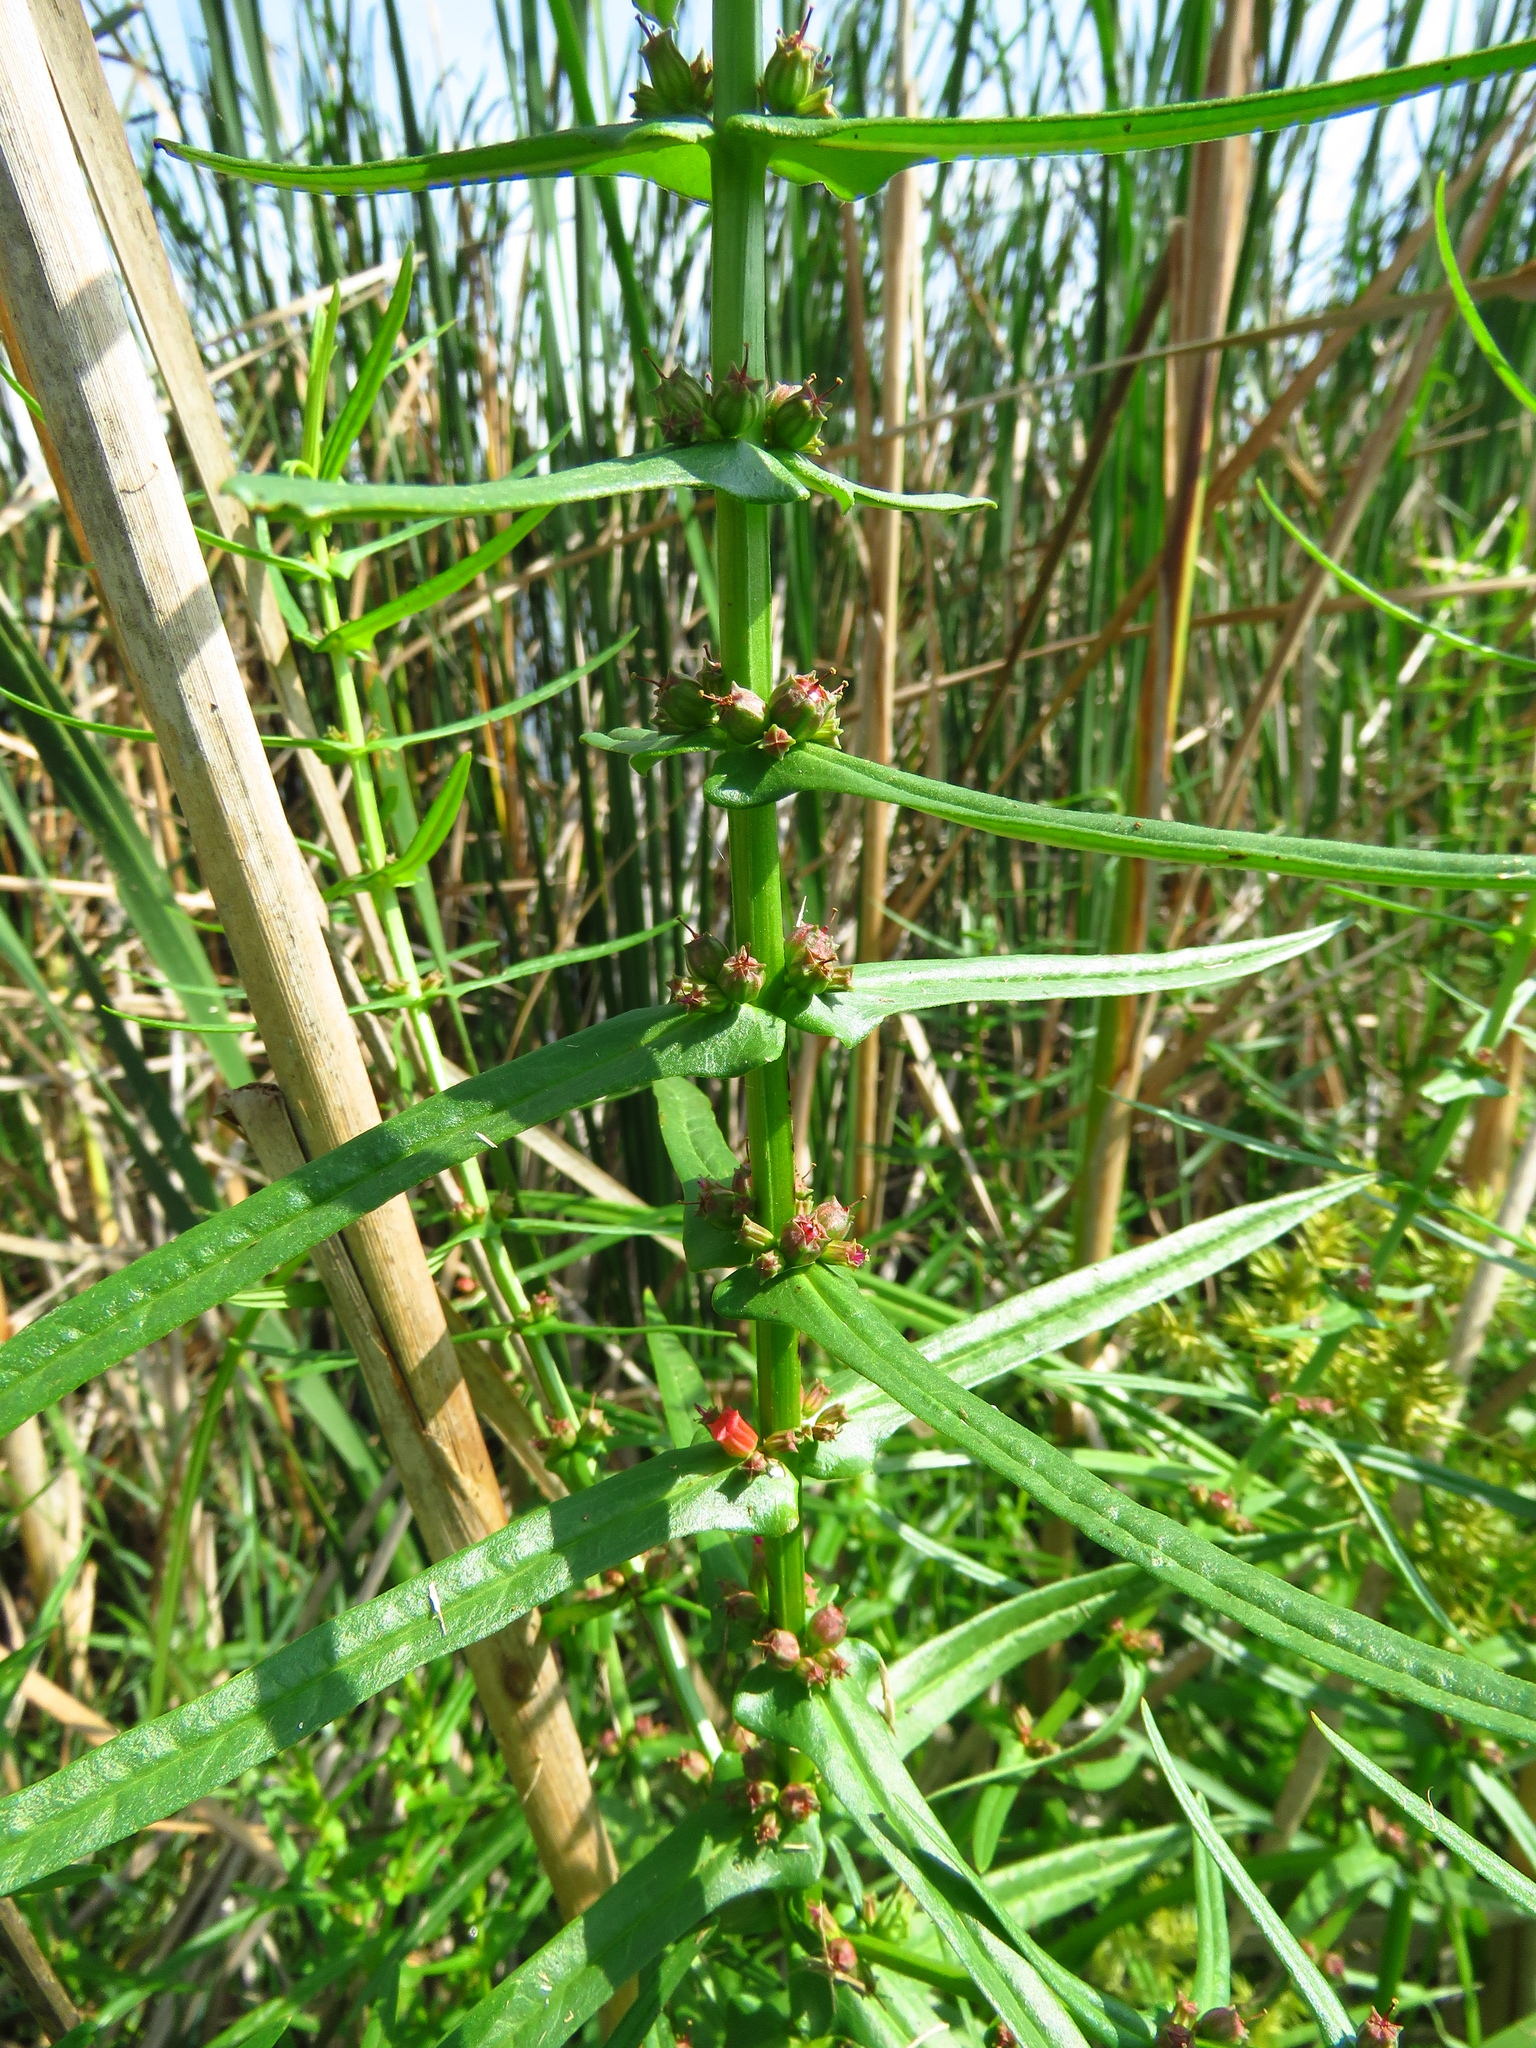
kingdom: Plantae
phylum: Tracheophyta
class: Magnoliopsida
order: Myrtales
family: Lythraceae
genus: Ammannia
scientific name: Ammannia coccinea
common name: Valley redstem
